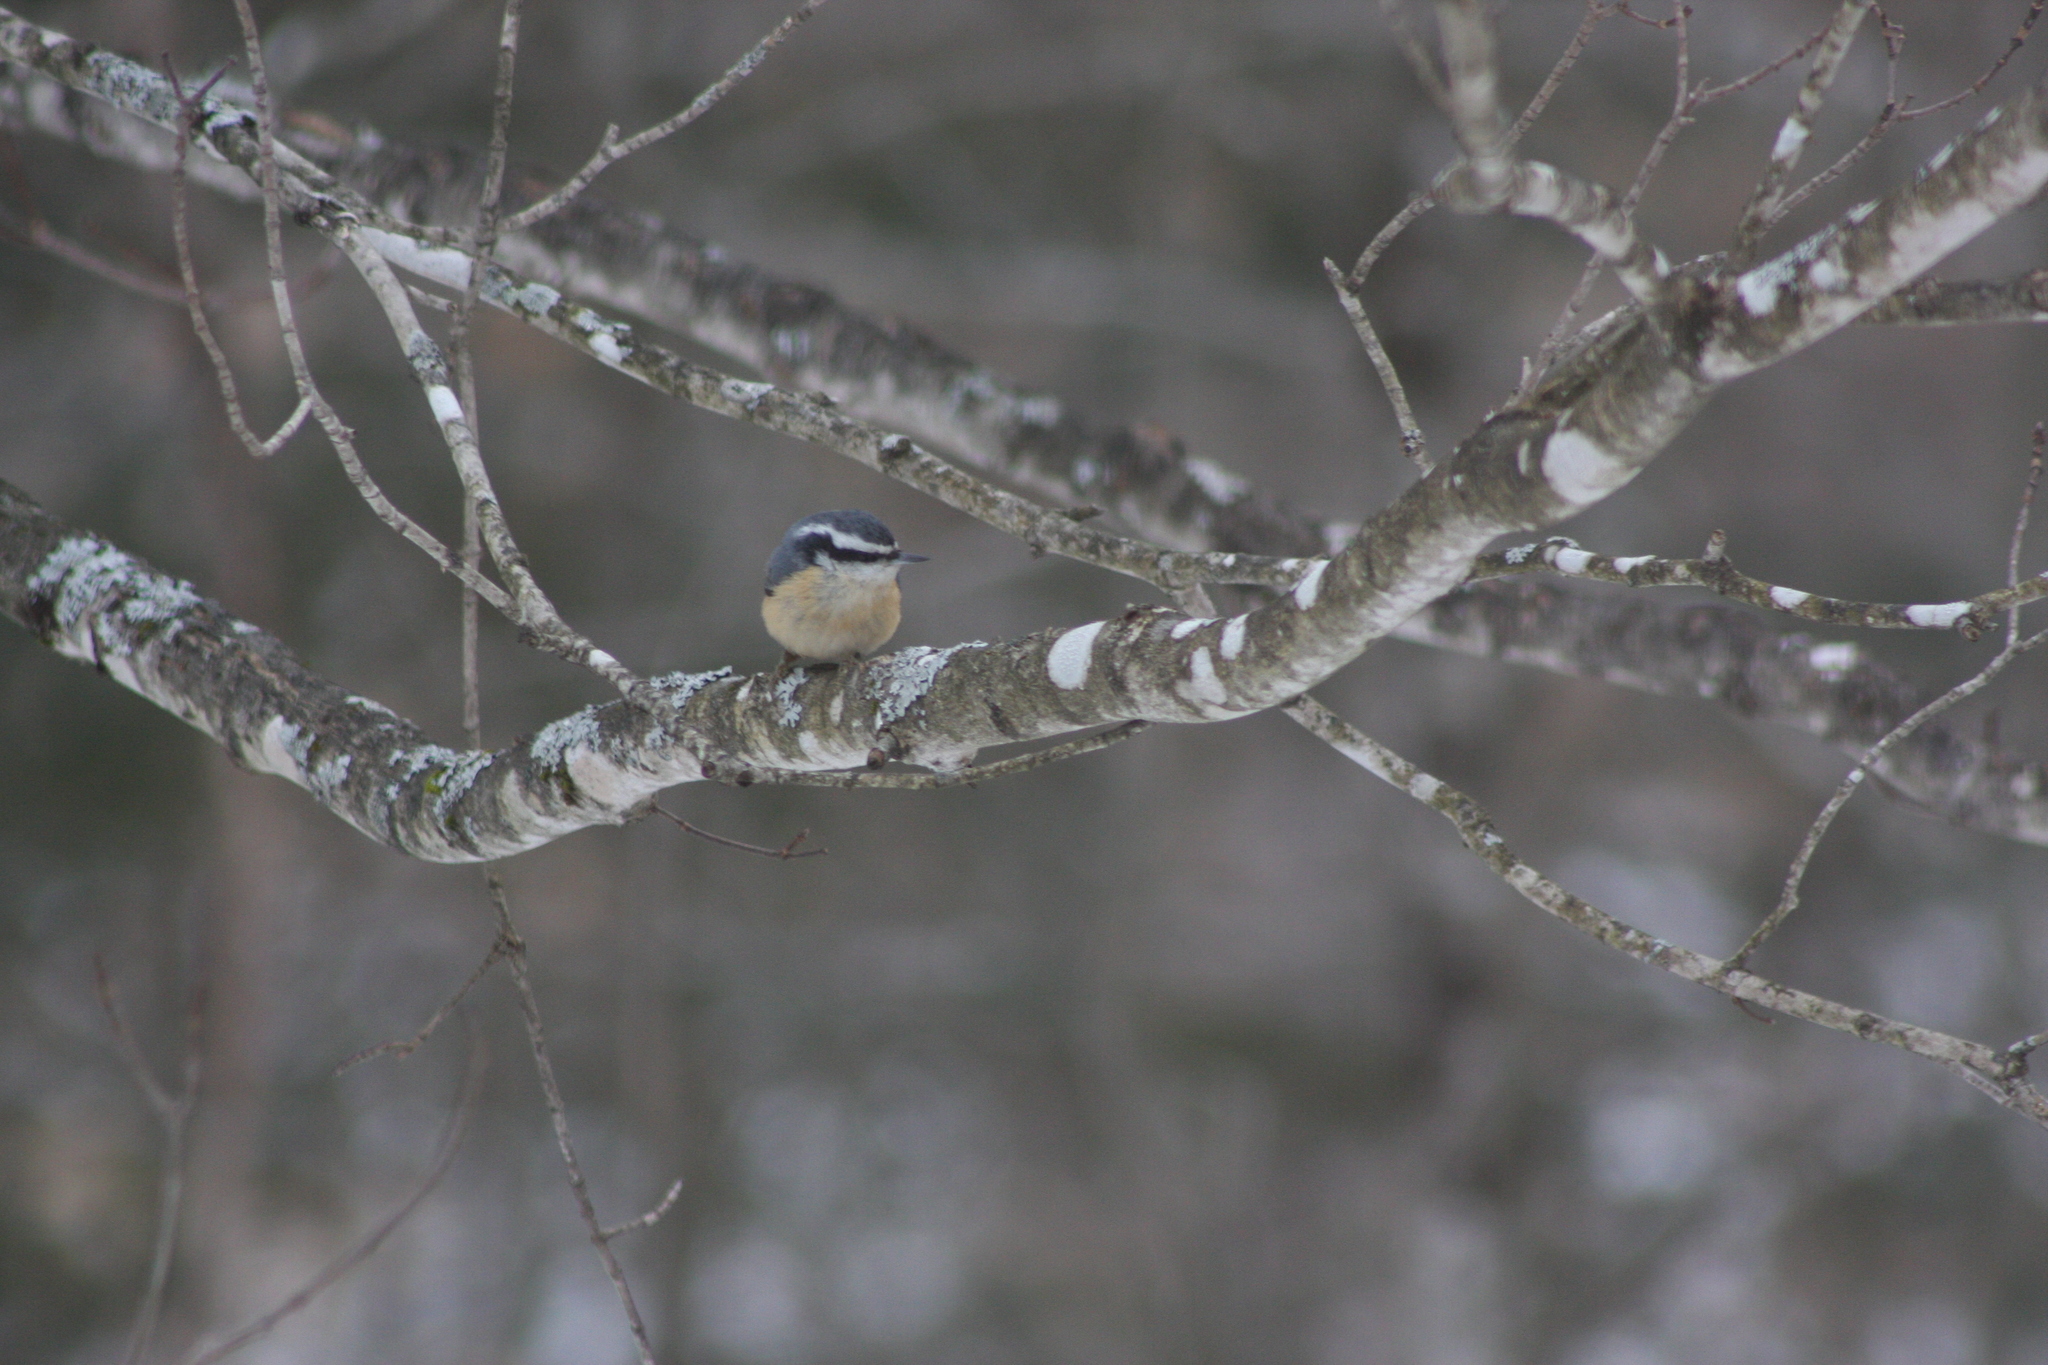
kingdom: Animalia
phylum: Chordata
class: Aves
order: Passeriformes
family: Sittidae
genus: Sitta
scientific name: Sitta canadensis
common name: Red-breasted nuthatch
